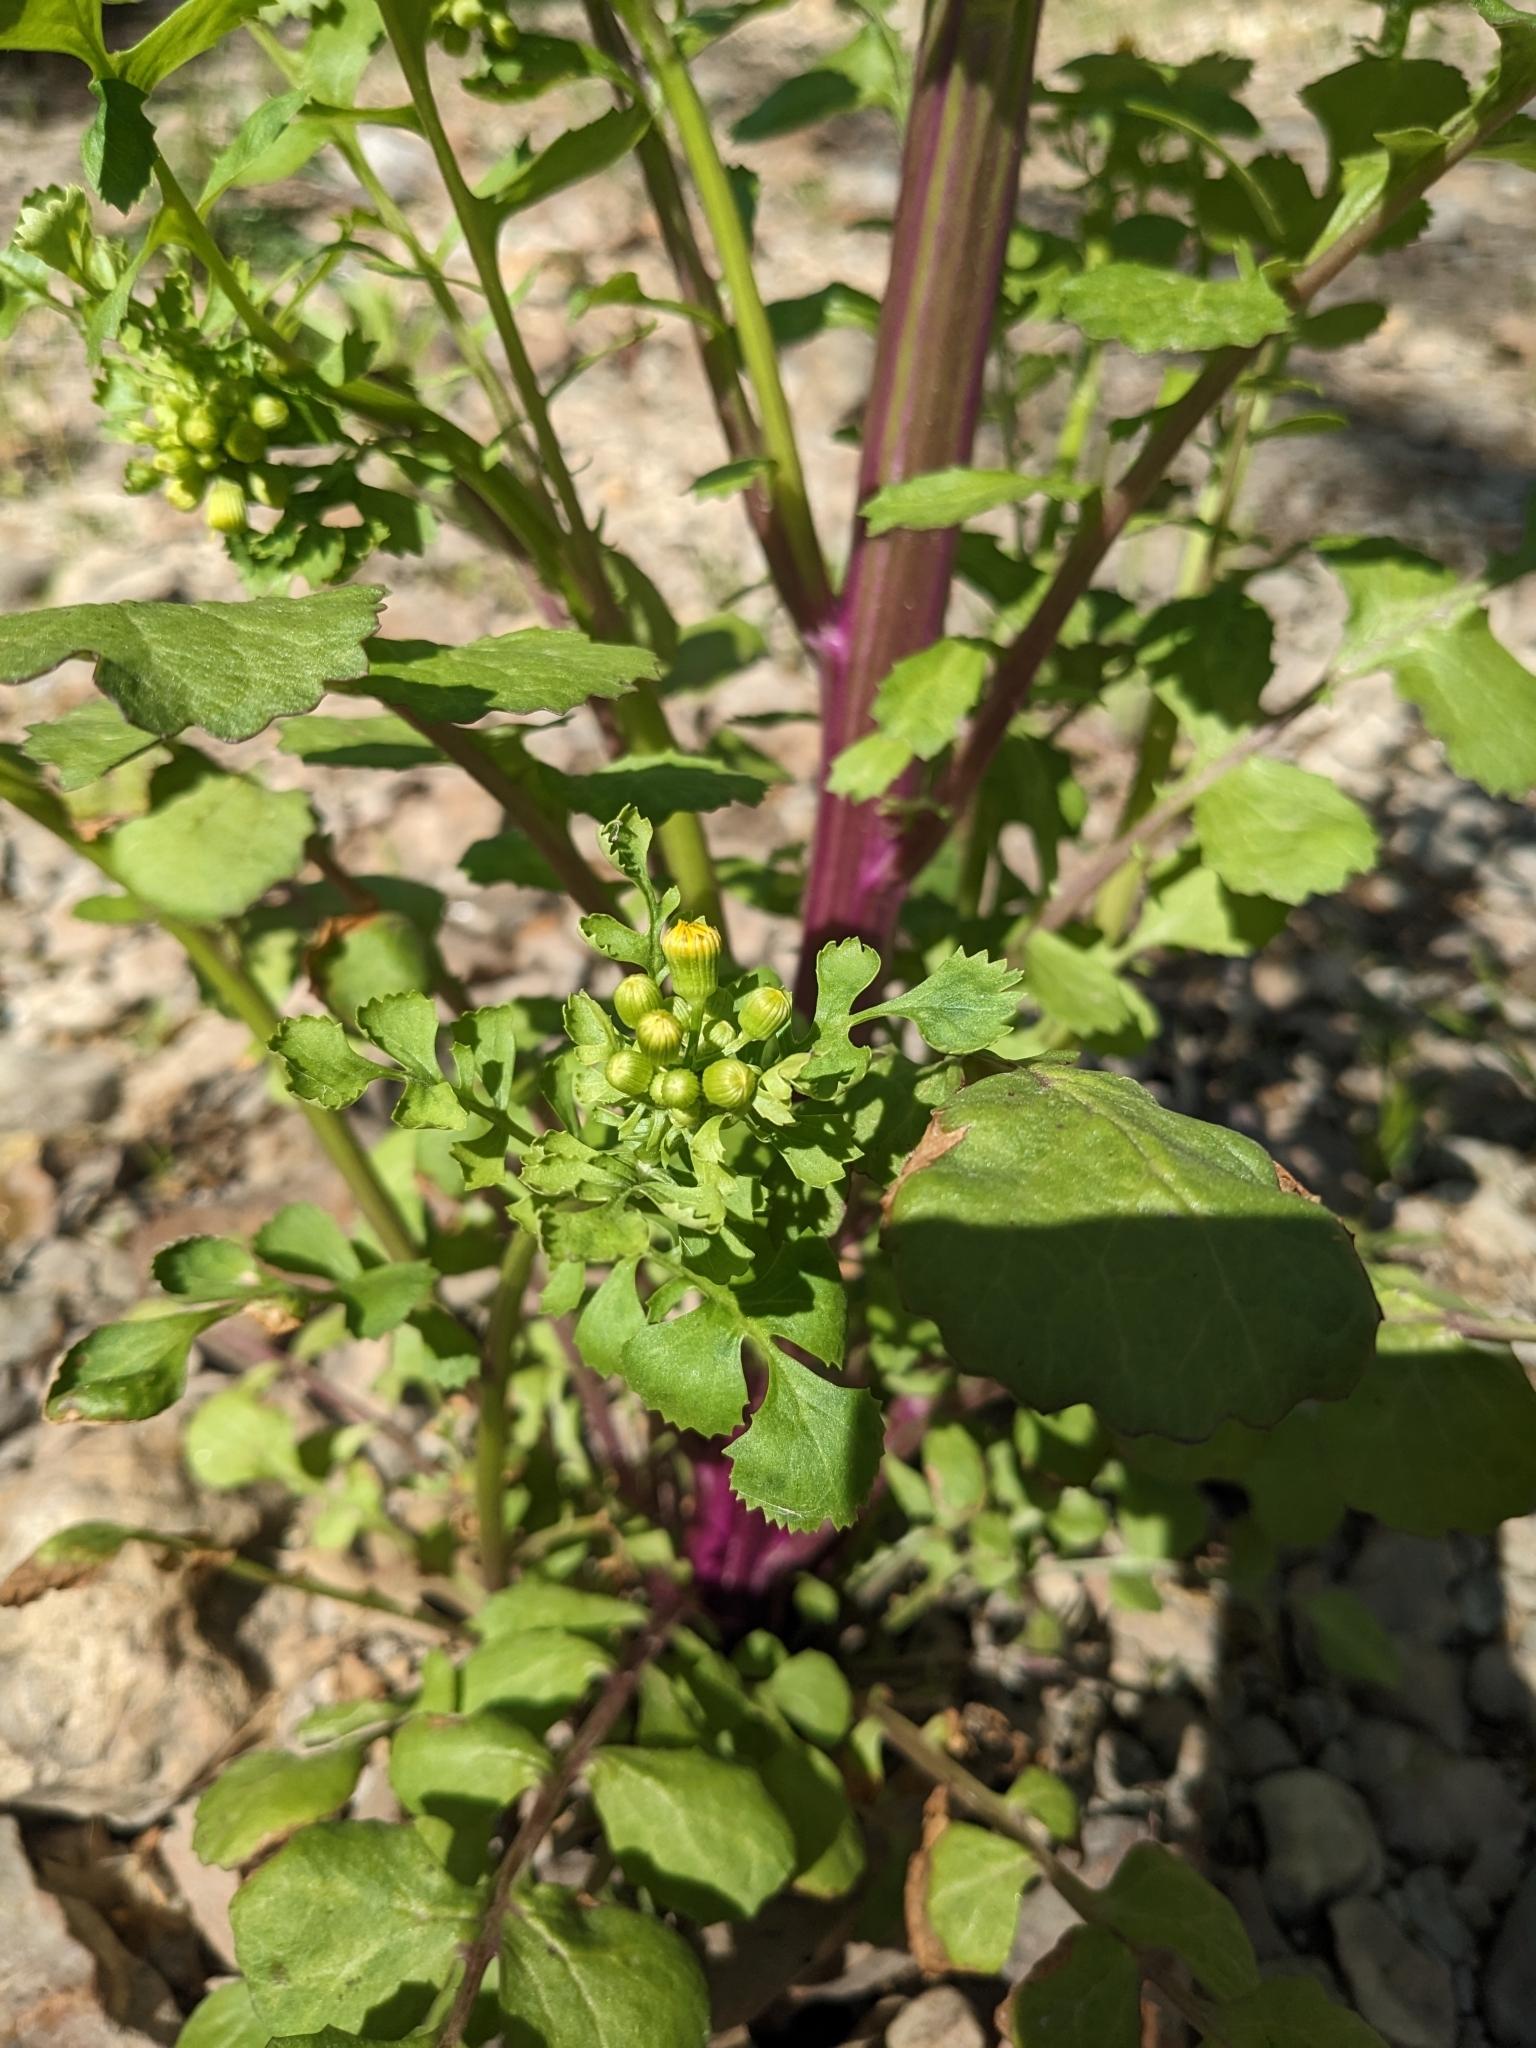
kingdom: Plantae
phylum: Tracheophyta
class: Magnoliopsida
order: Asterales
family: Asteraceae
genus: Packera
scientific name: Packera glabella
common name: Butterweed
